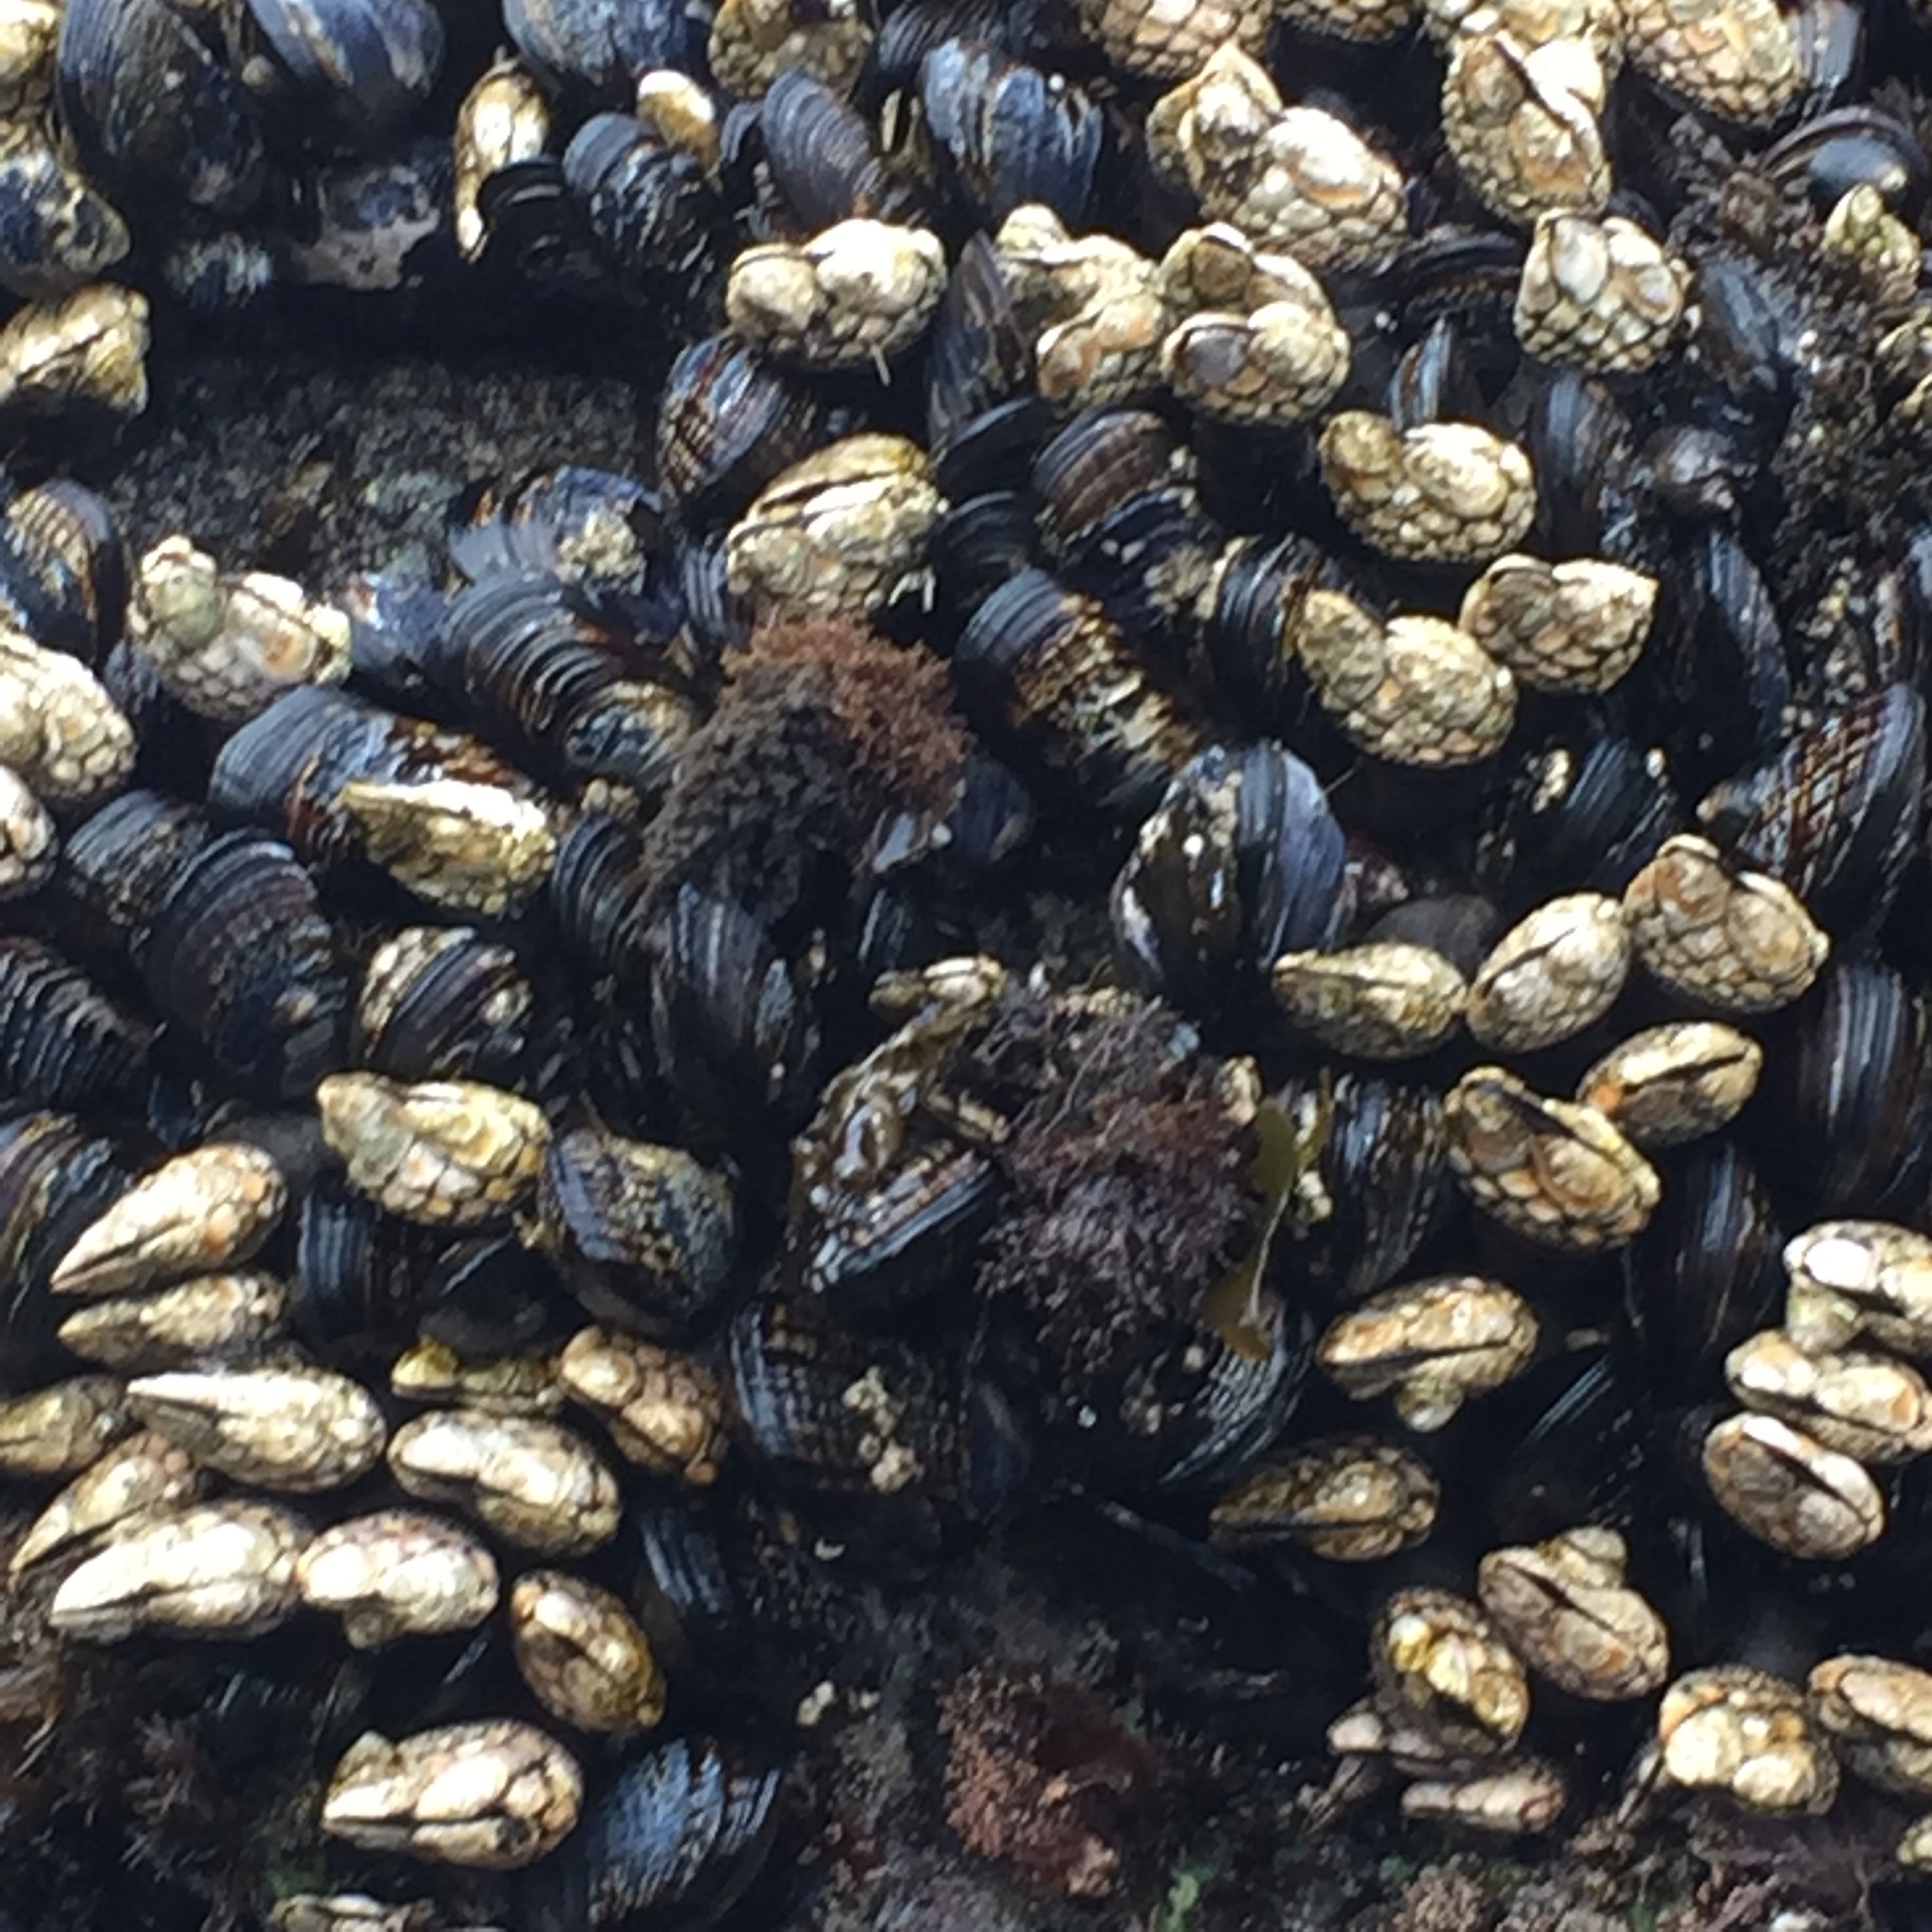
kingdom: Animalia
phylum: Mollusca
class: Bivalvia
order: Mytilida
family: Mytilidae
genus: Mytilus
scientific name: Mytilus californianus
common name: California mussel
